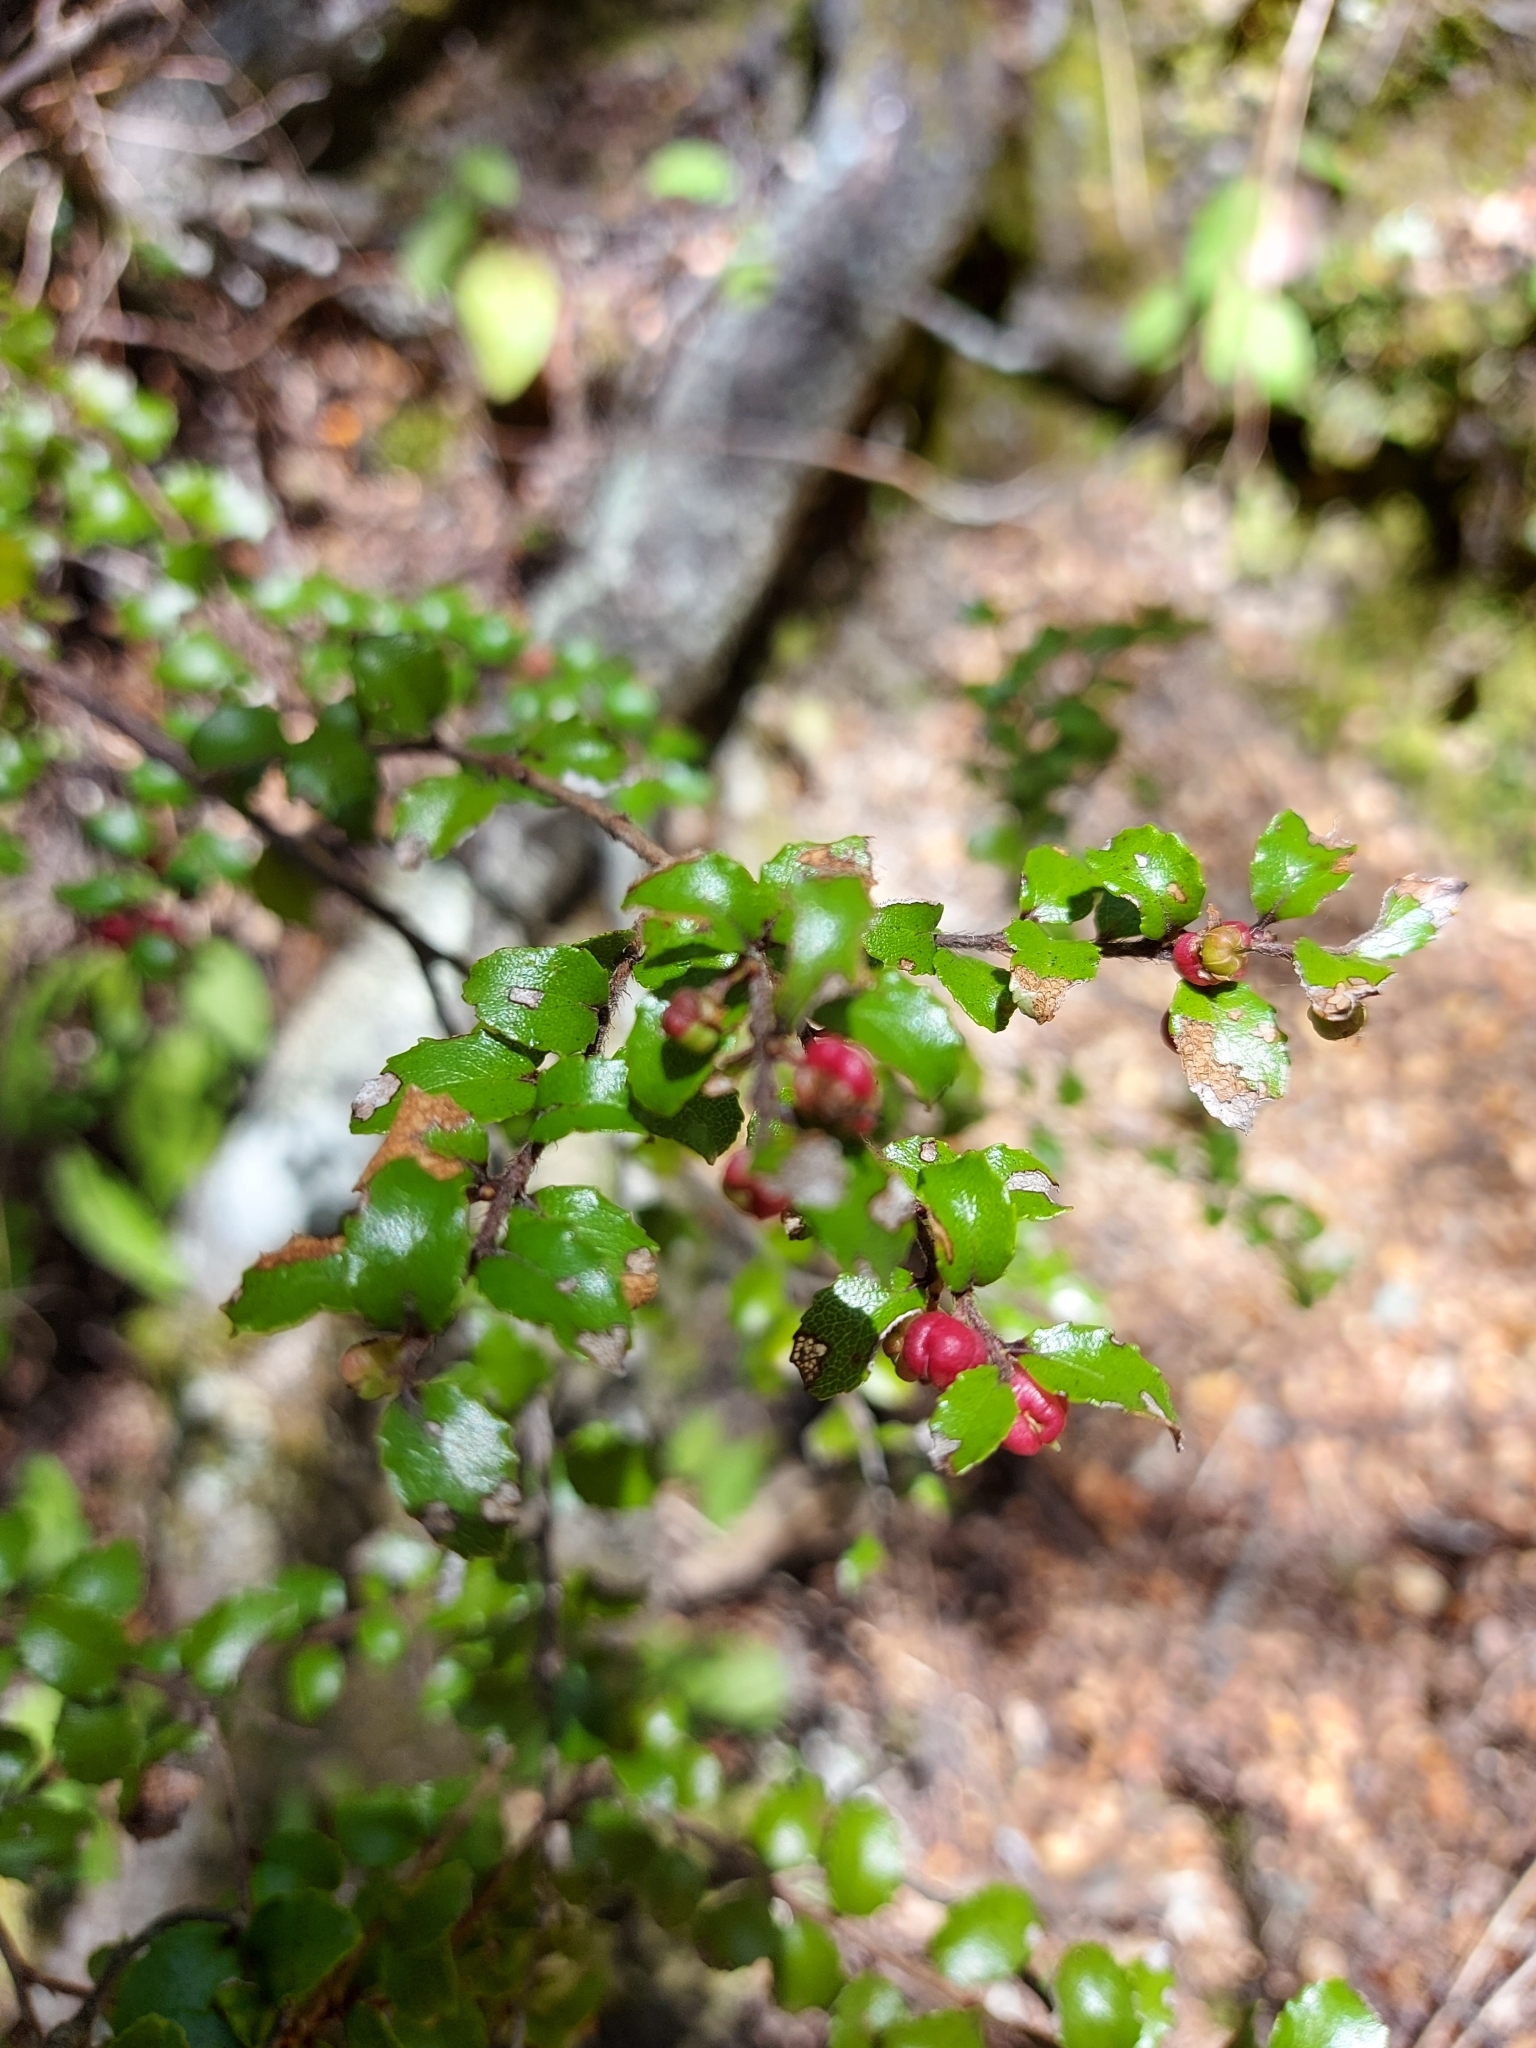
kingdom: Plantae
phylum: Tracheophyta
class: Magnoliopsida
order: Ericales
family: Ericaceae
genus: Gaultheria
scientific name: Gaultheria antipoda
